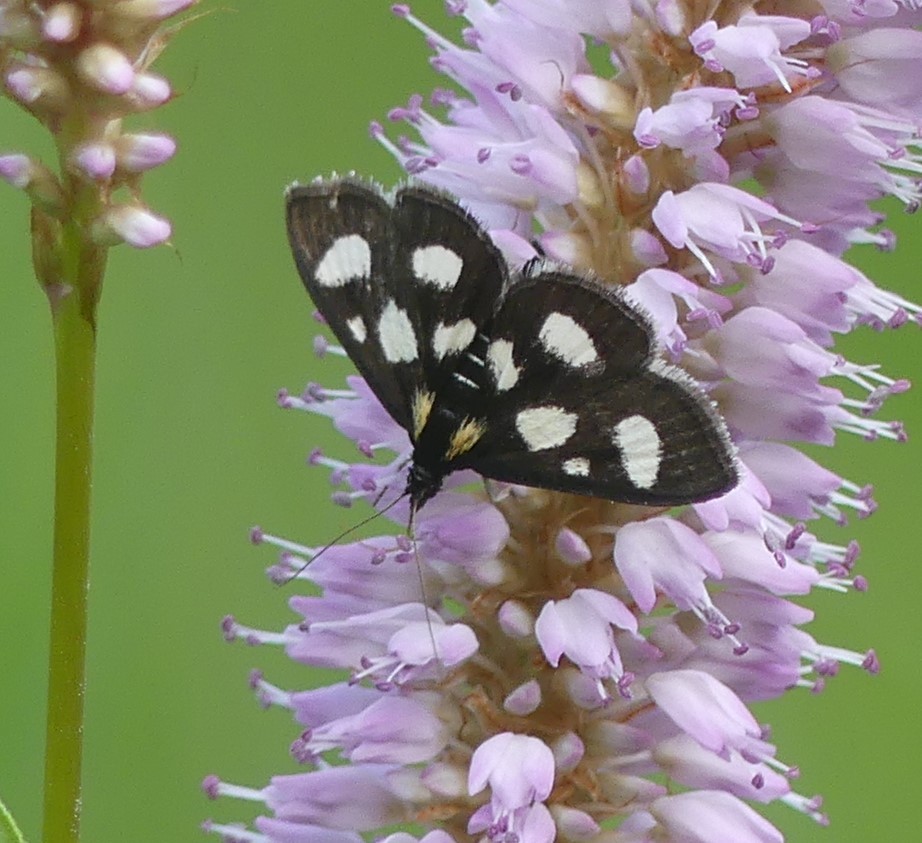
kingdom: Animalia
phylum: Arthropoda
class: Insecta
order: Lepidoptera
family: Crambidae
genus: Anania
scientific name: Anania funebris
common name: White-spotted sable moth
